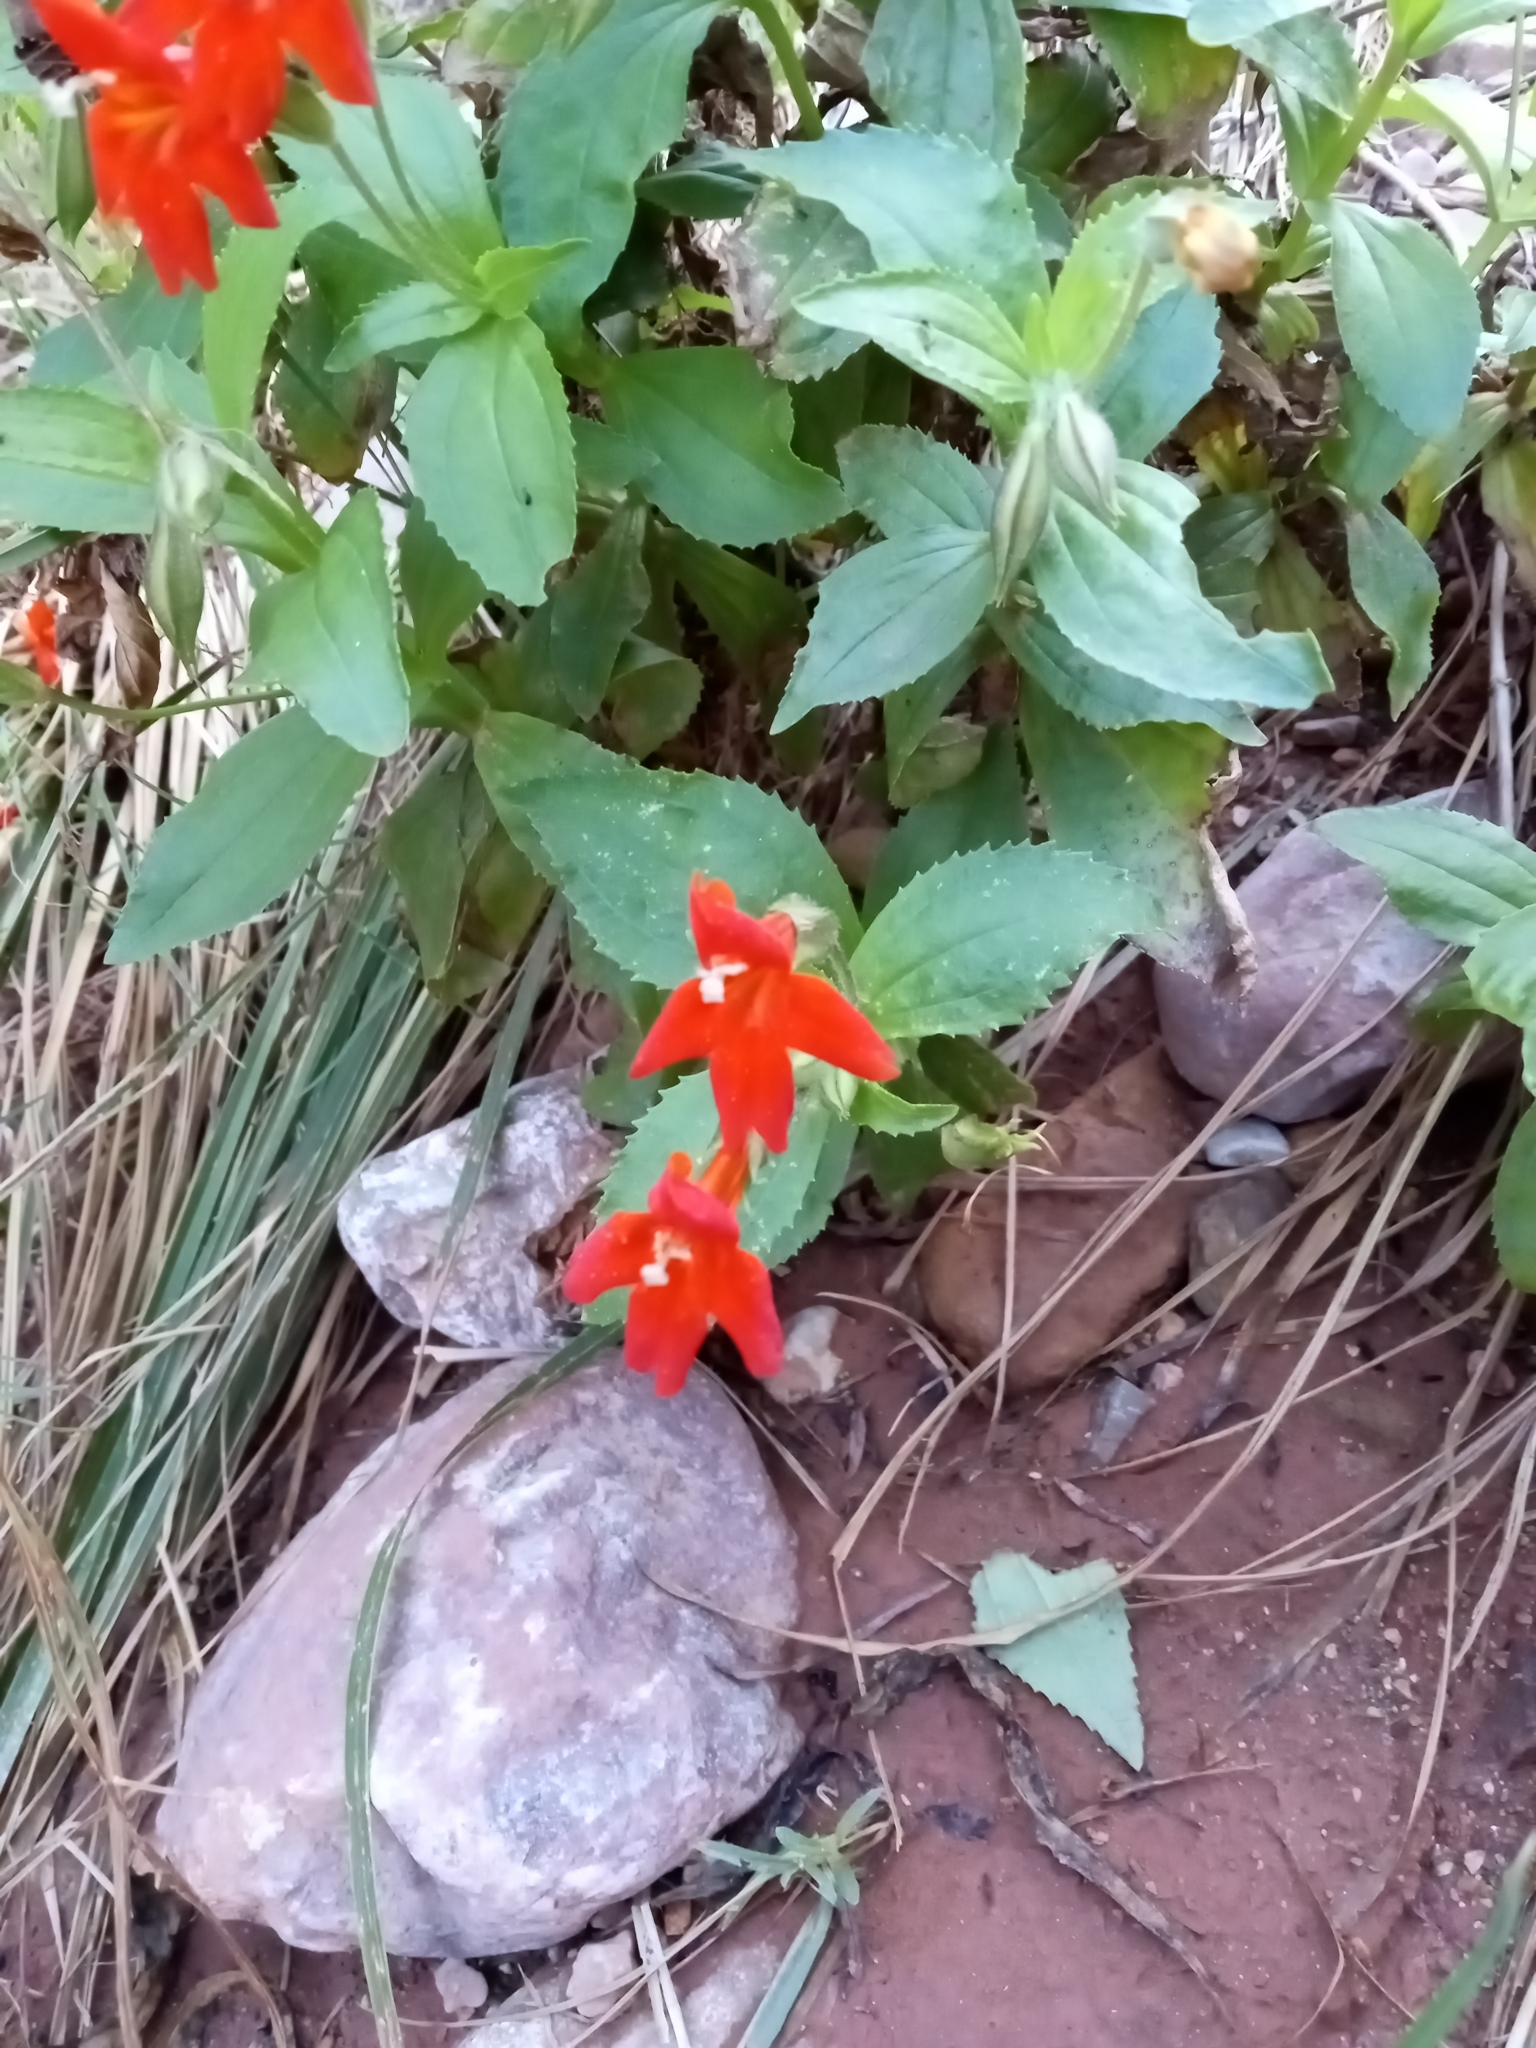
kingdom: Plantae
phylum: Tracheophyta
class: Magnoliopsida
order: Lamiales
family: Phrymaceae
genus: Erythranthe
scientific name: Erythranthe verbenacea
